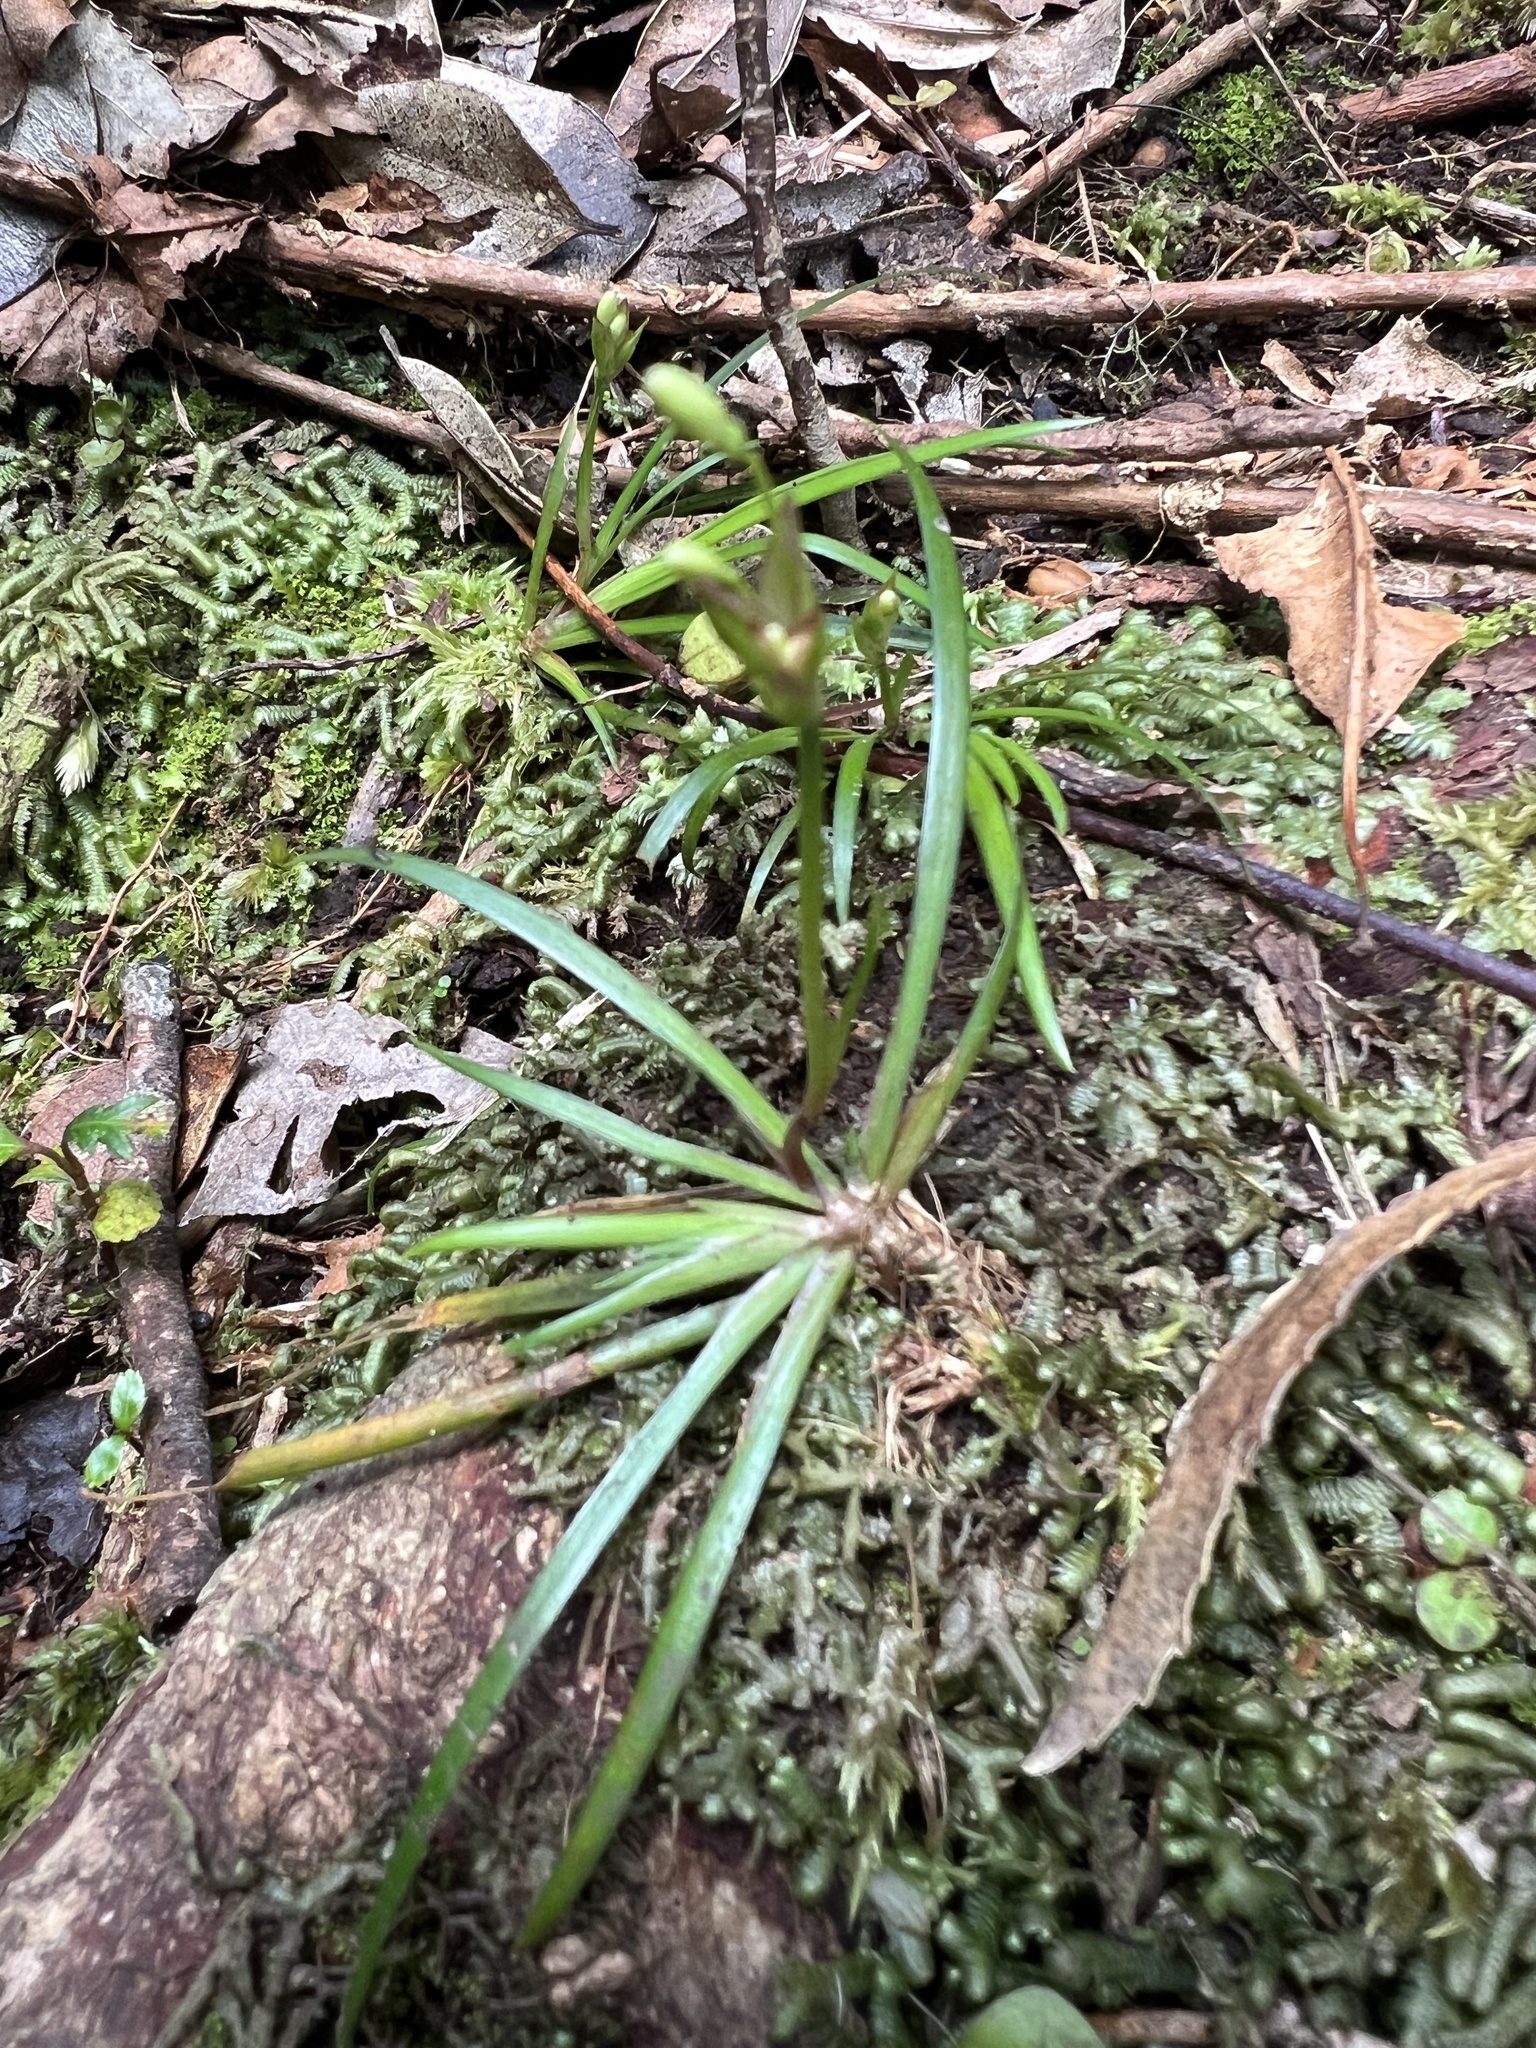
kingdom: Plantae
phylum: Tracheophyta
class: Liliopsida
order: Asparagales
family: Iridaceae
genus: Libertia
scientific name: Libertia micrantha
